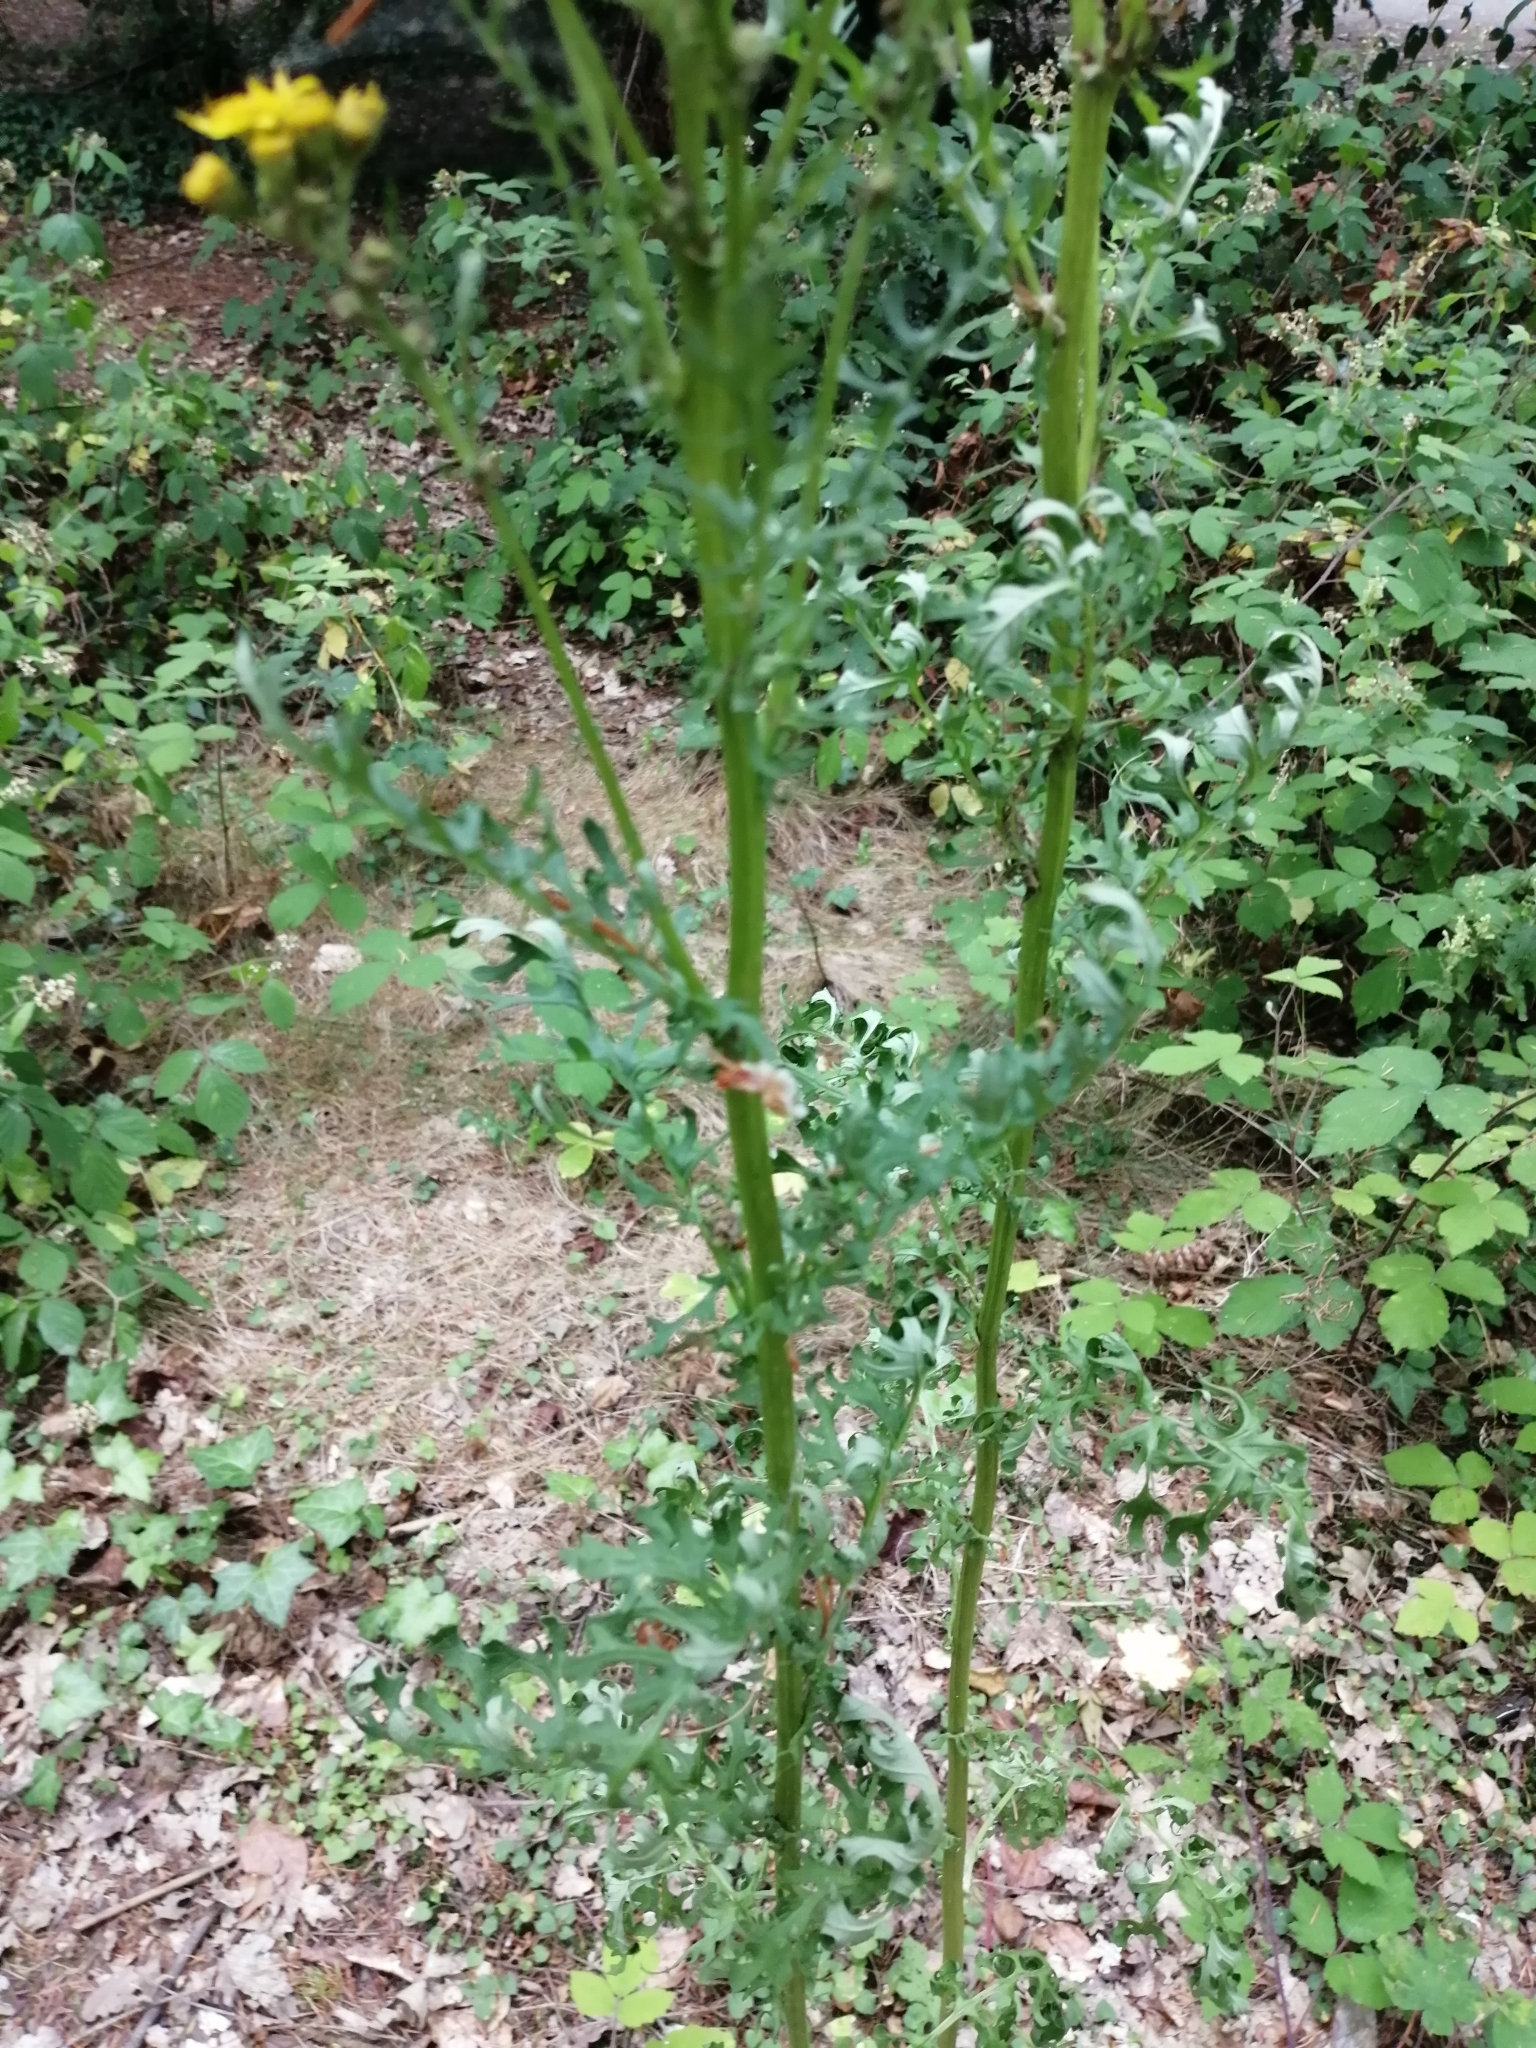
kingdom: Plantae
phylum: Tracheophyta
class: Magnoliopsida
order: Asterales
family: Asteraceae
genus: Jacobaea
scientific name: Jacobaea vulgaris
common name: Stinking willie
